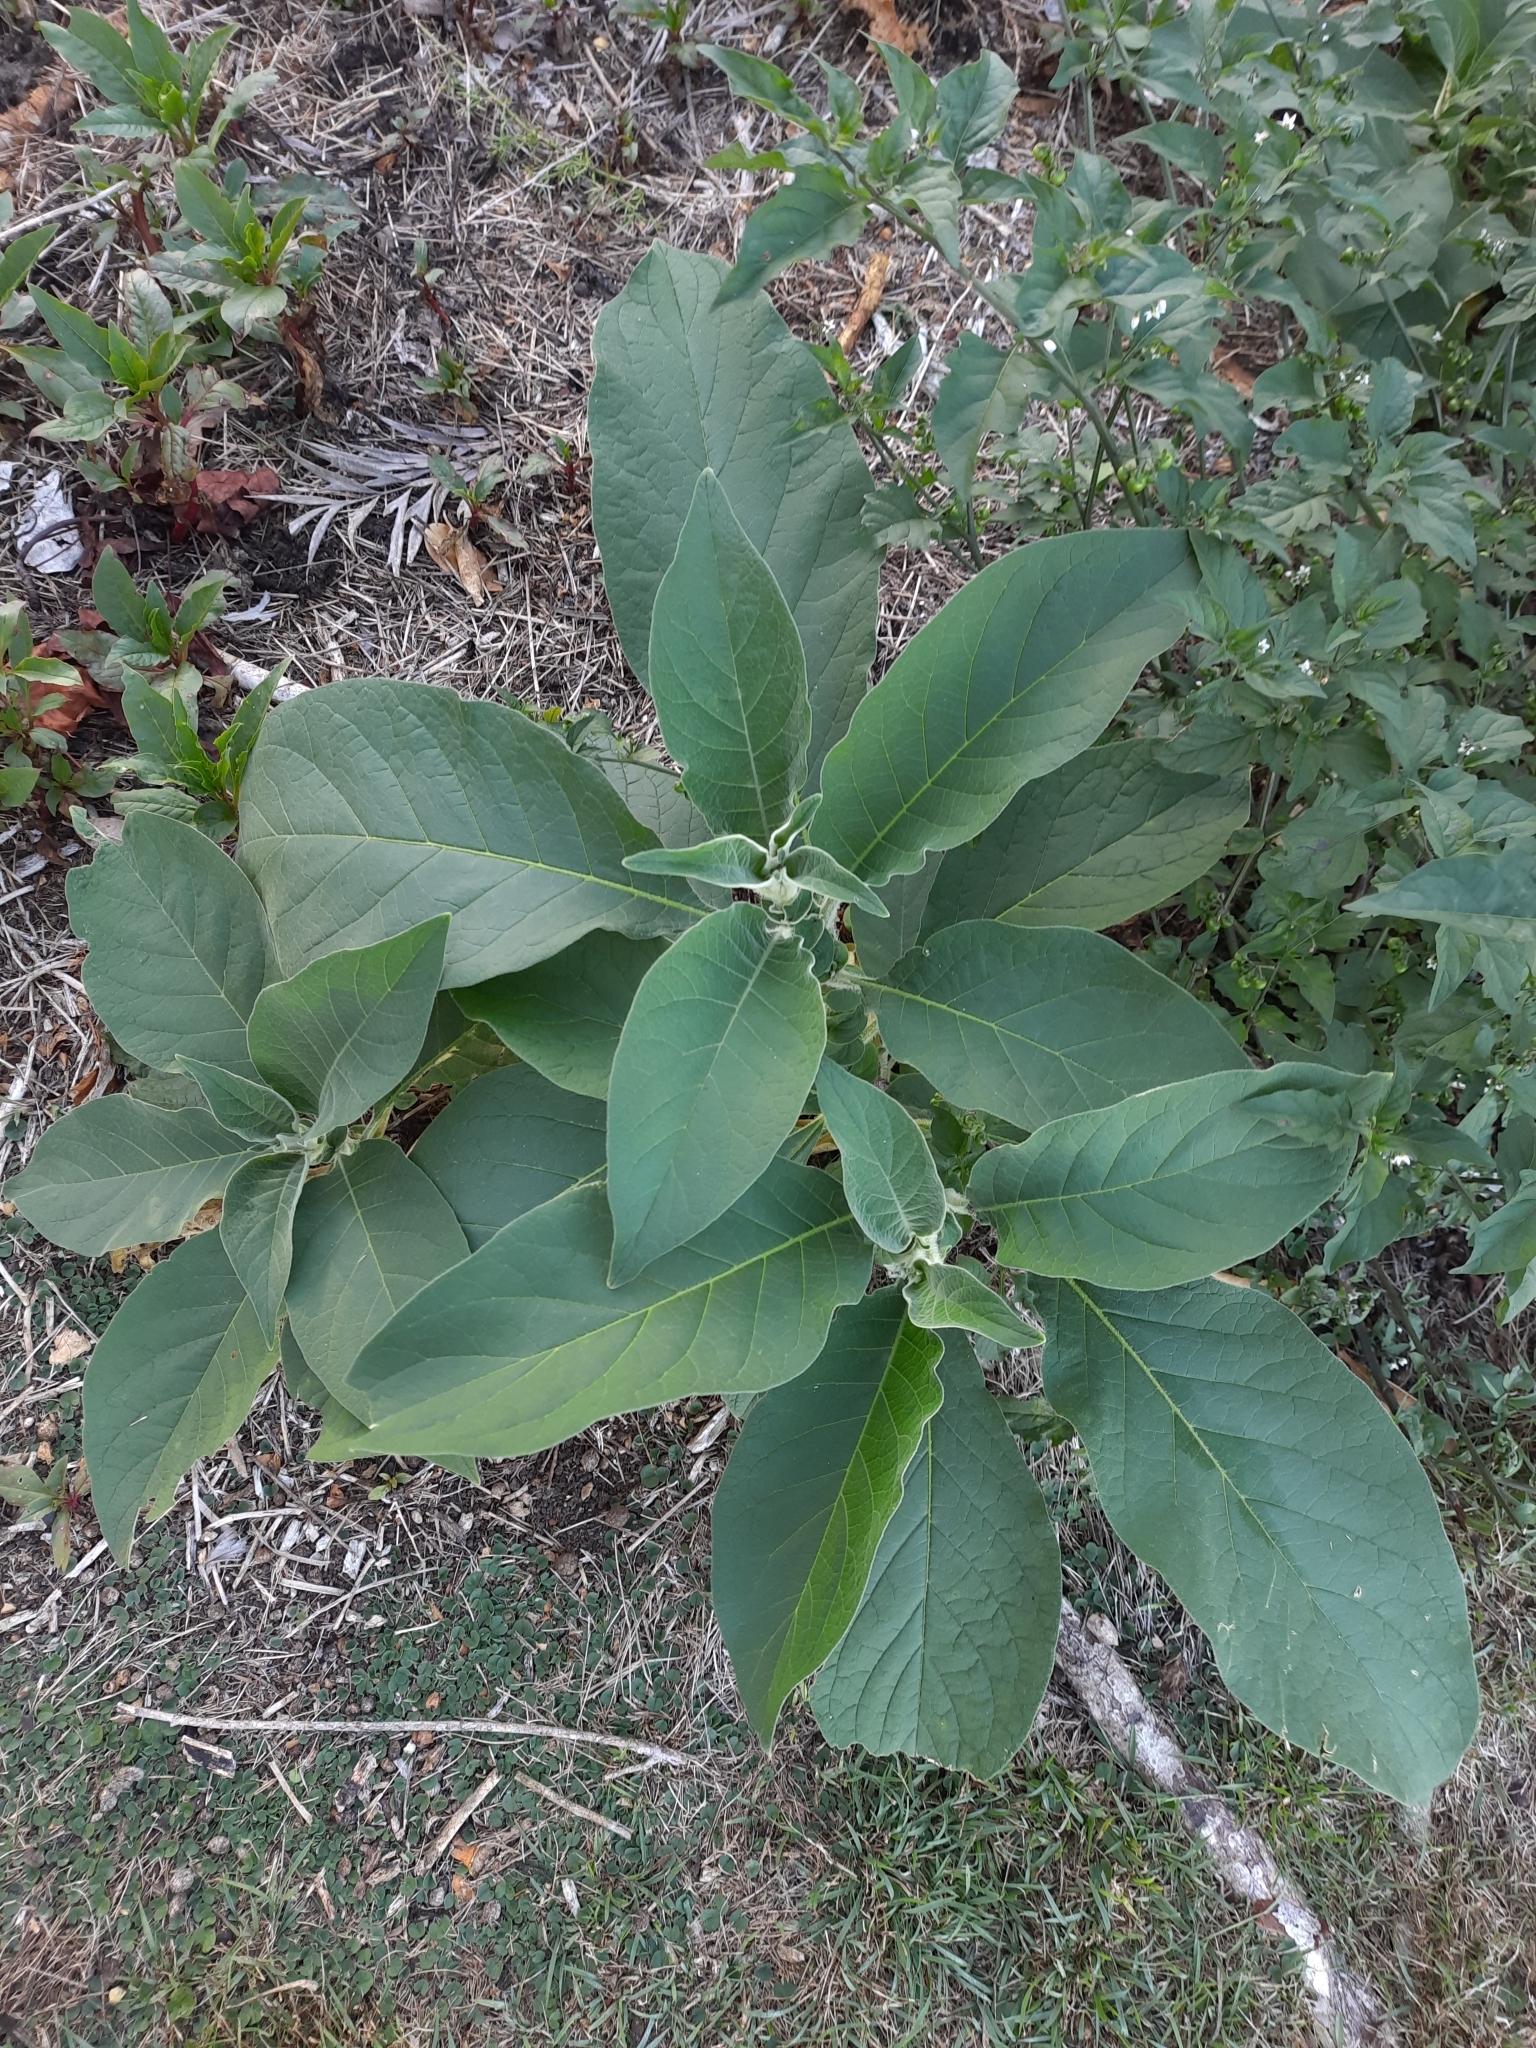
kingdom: Plantae
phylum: Tracheophyta
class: Magnoliopsida
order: Solanales
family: Solanaceae
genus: Solanum
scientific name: Solanum mauritianum
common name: Earleaf nightshade
